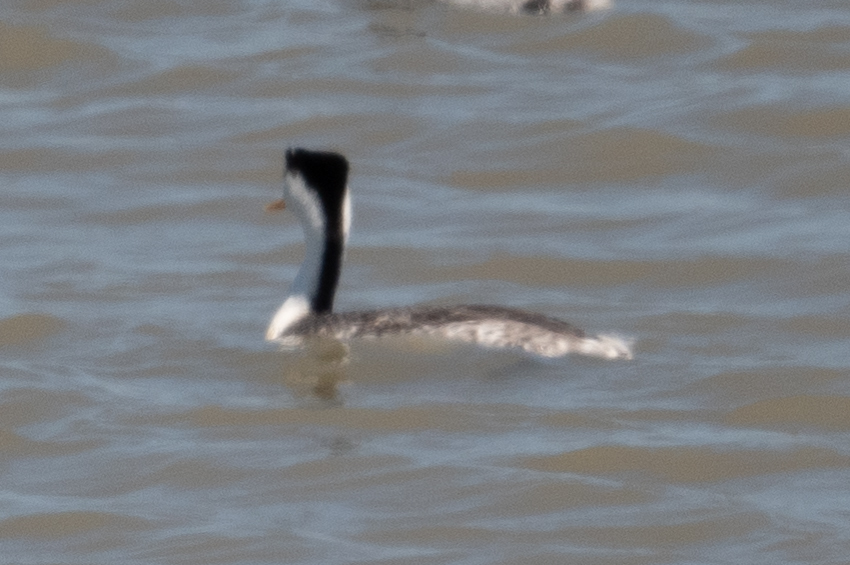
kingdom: Animalia
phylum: Chordata
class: Aves
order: Podicipediformes
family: Podicipedidae
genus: Aechmophorus
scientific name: Aechmophorus clarkii
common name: Clark's grebe
